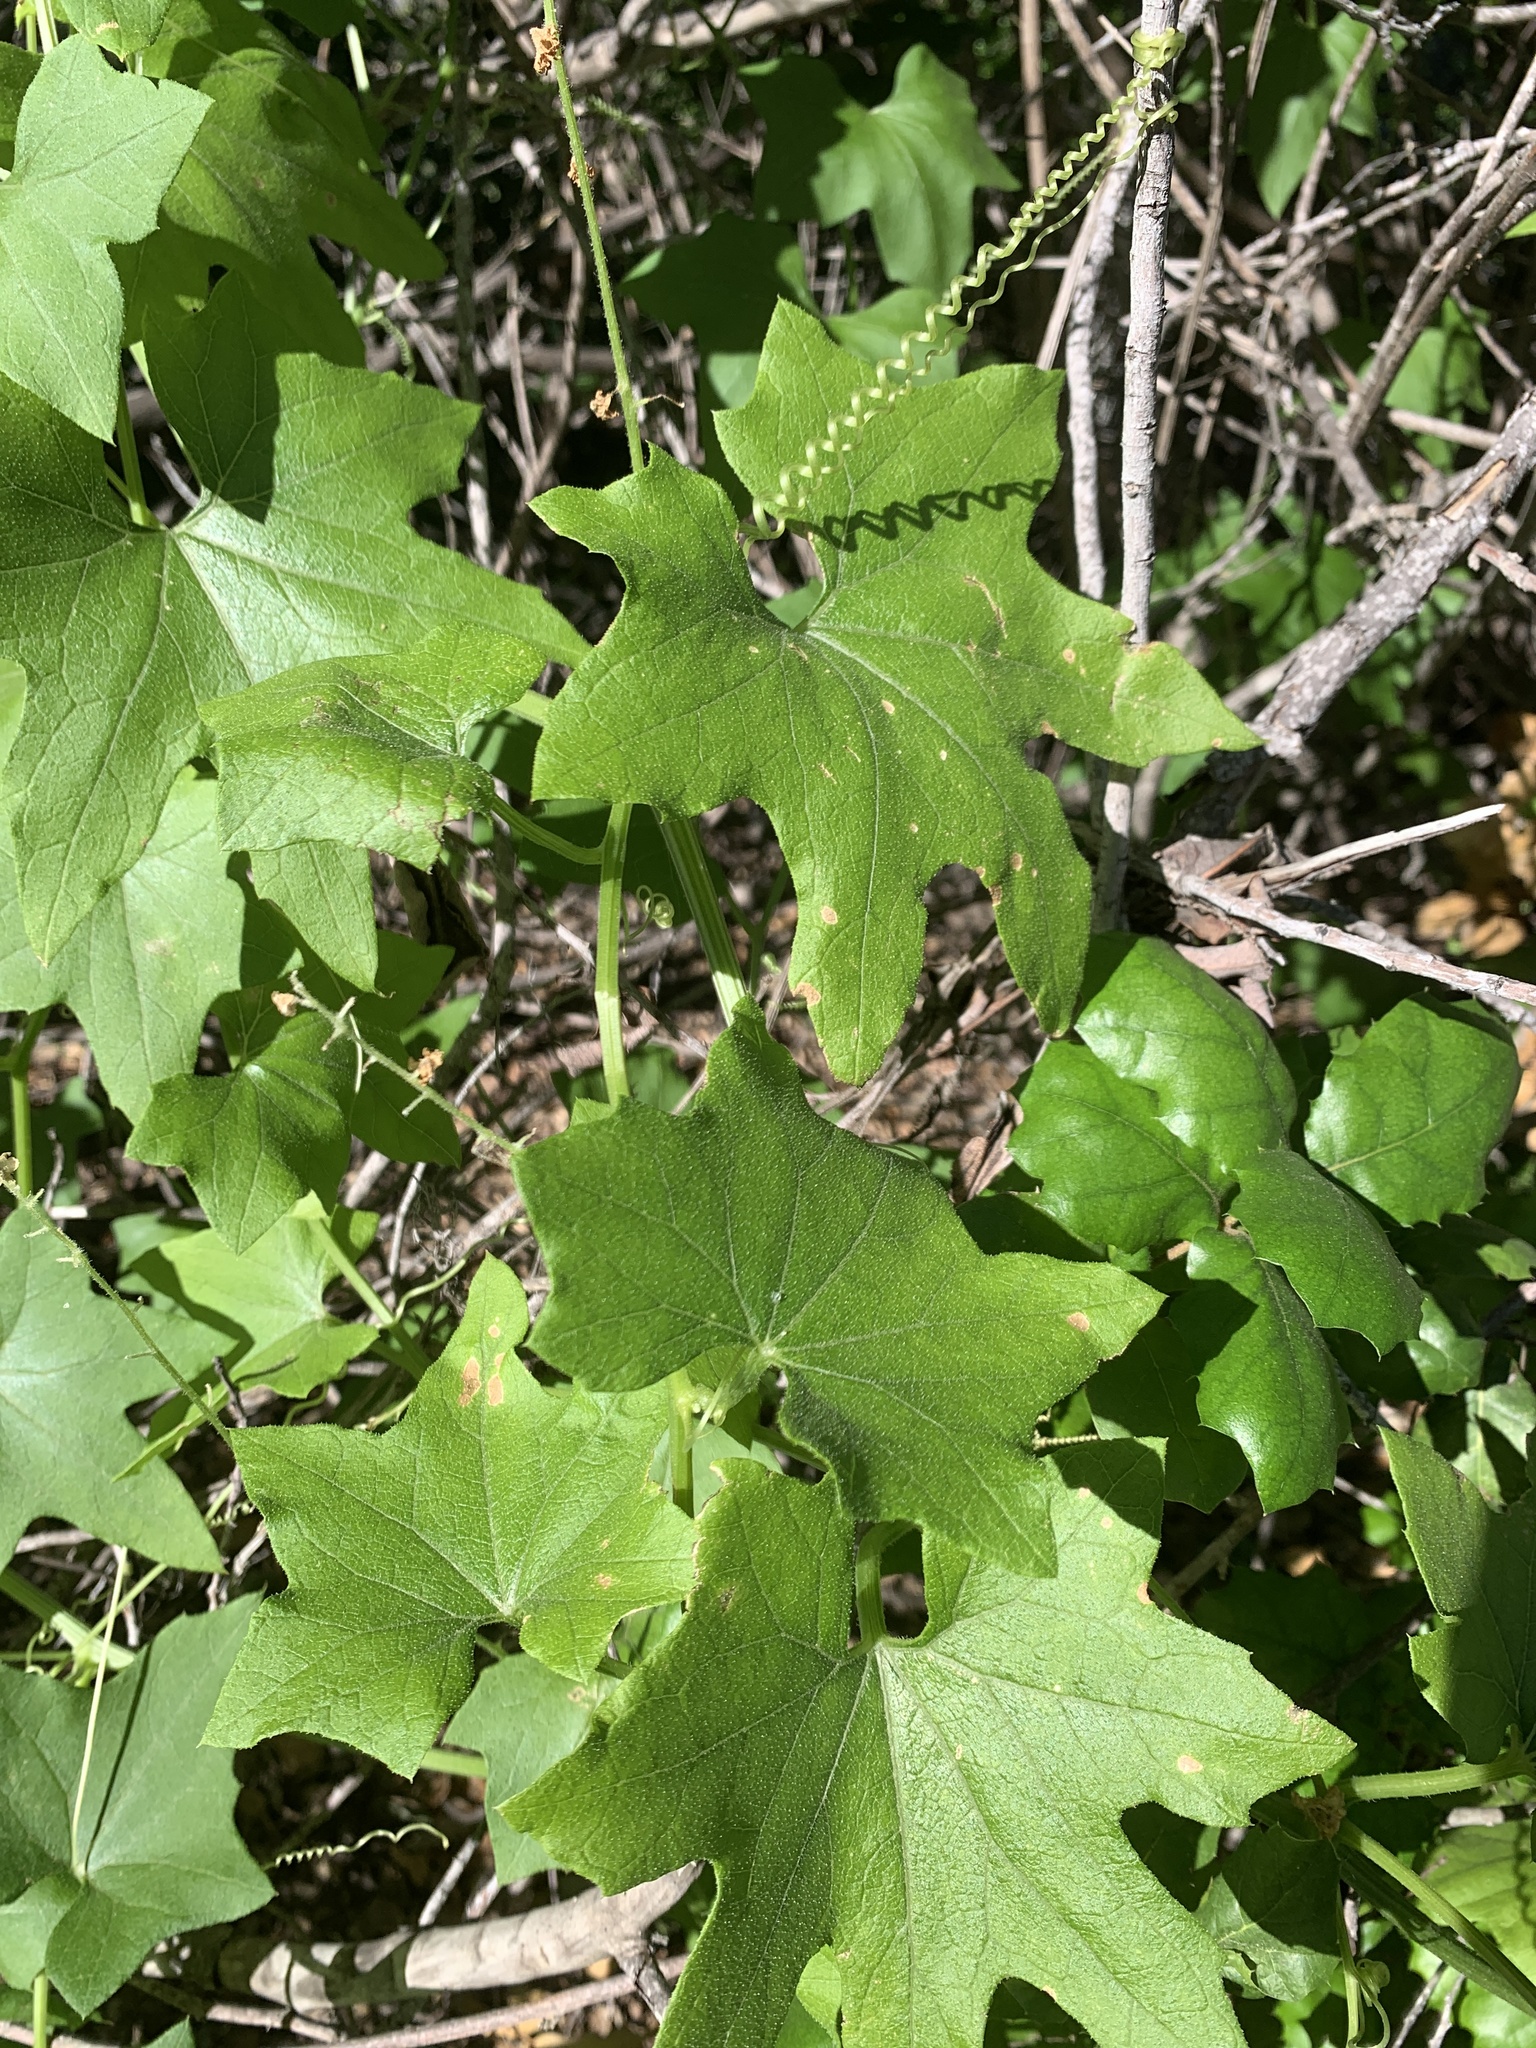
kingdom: Plantae
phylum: Tracheophyta
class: Magnoliopsida
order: Cucurbitales
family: Cucurbitaceae
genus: Marah
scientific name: Marah
